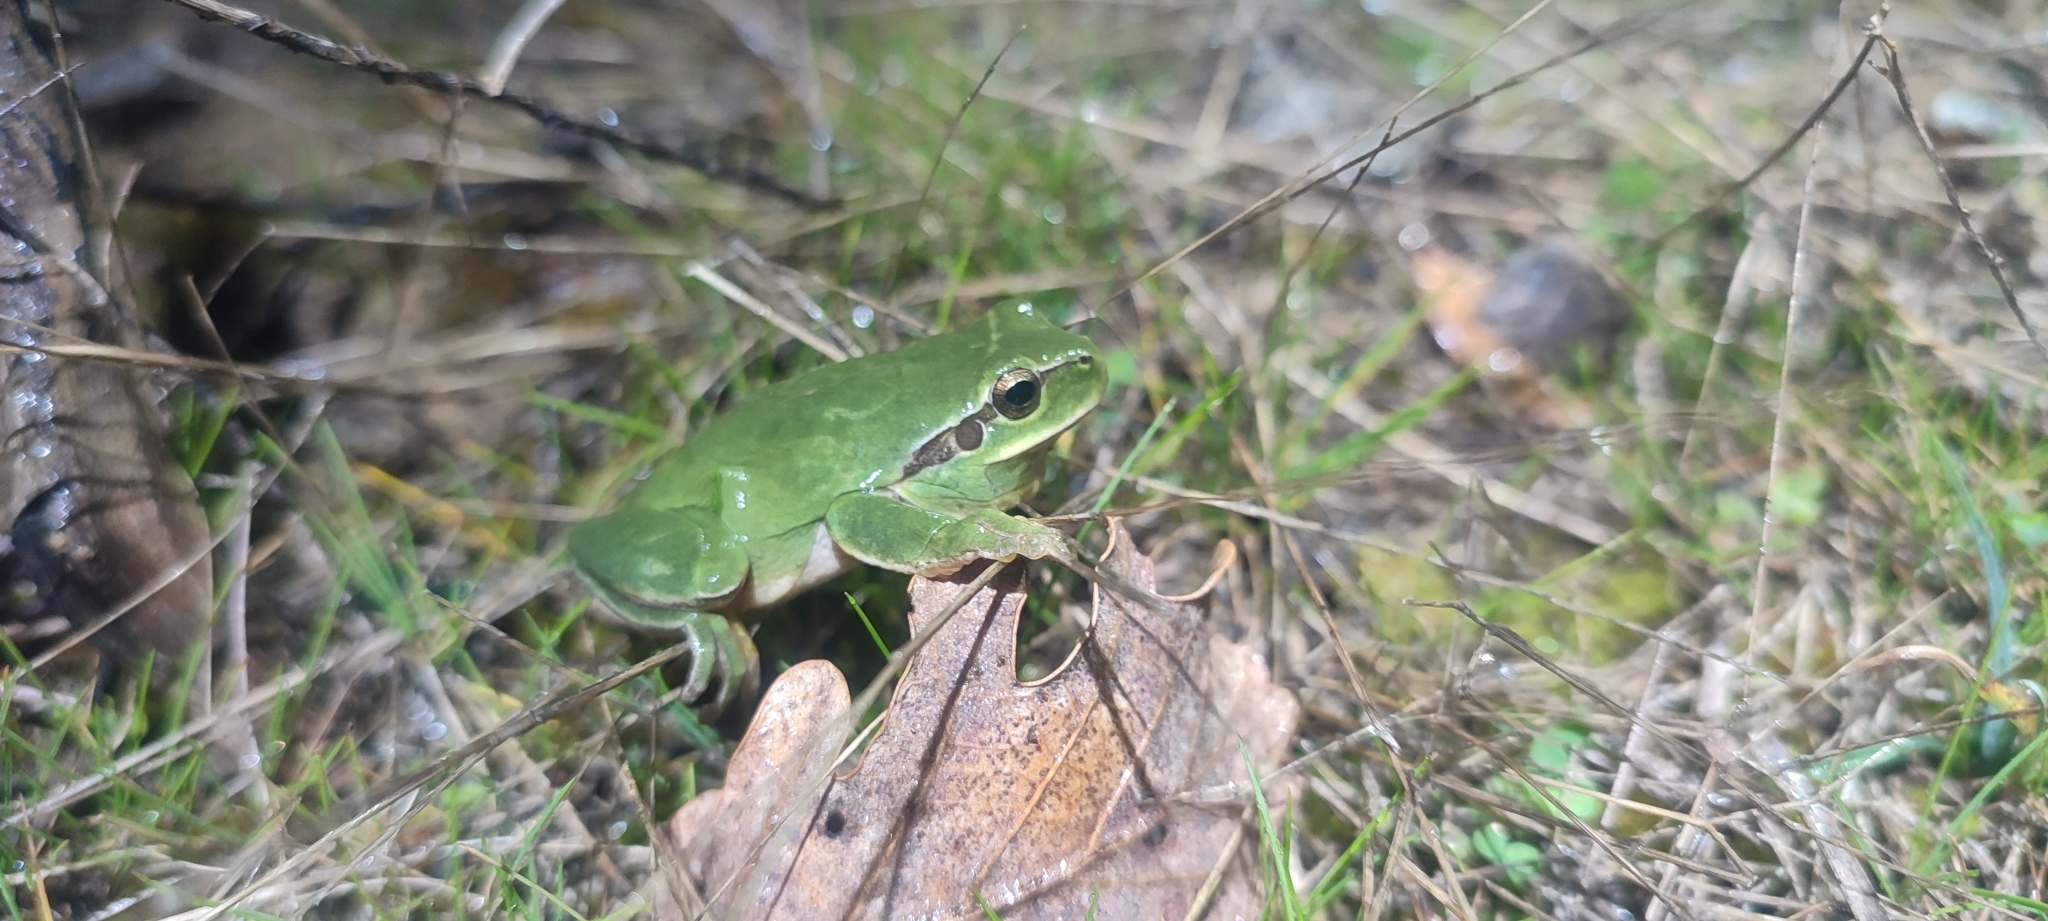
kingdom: Animalia
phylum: Chordata
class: Amphibia
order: Anura
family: Hylidae
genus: Hyla
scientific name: Hyla meridionalis
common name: Stripeless tree frog
